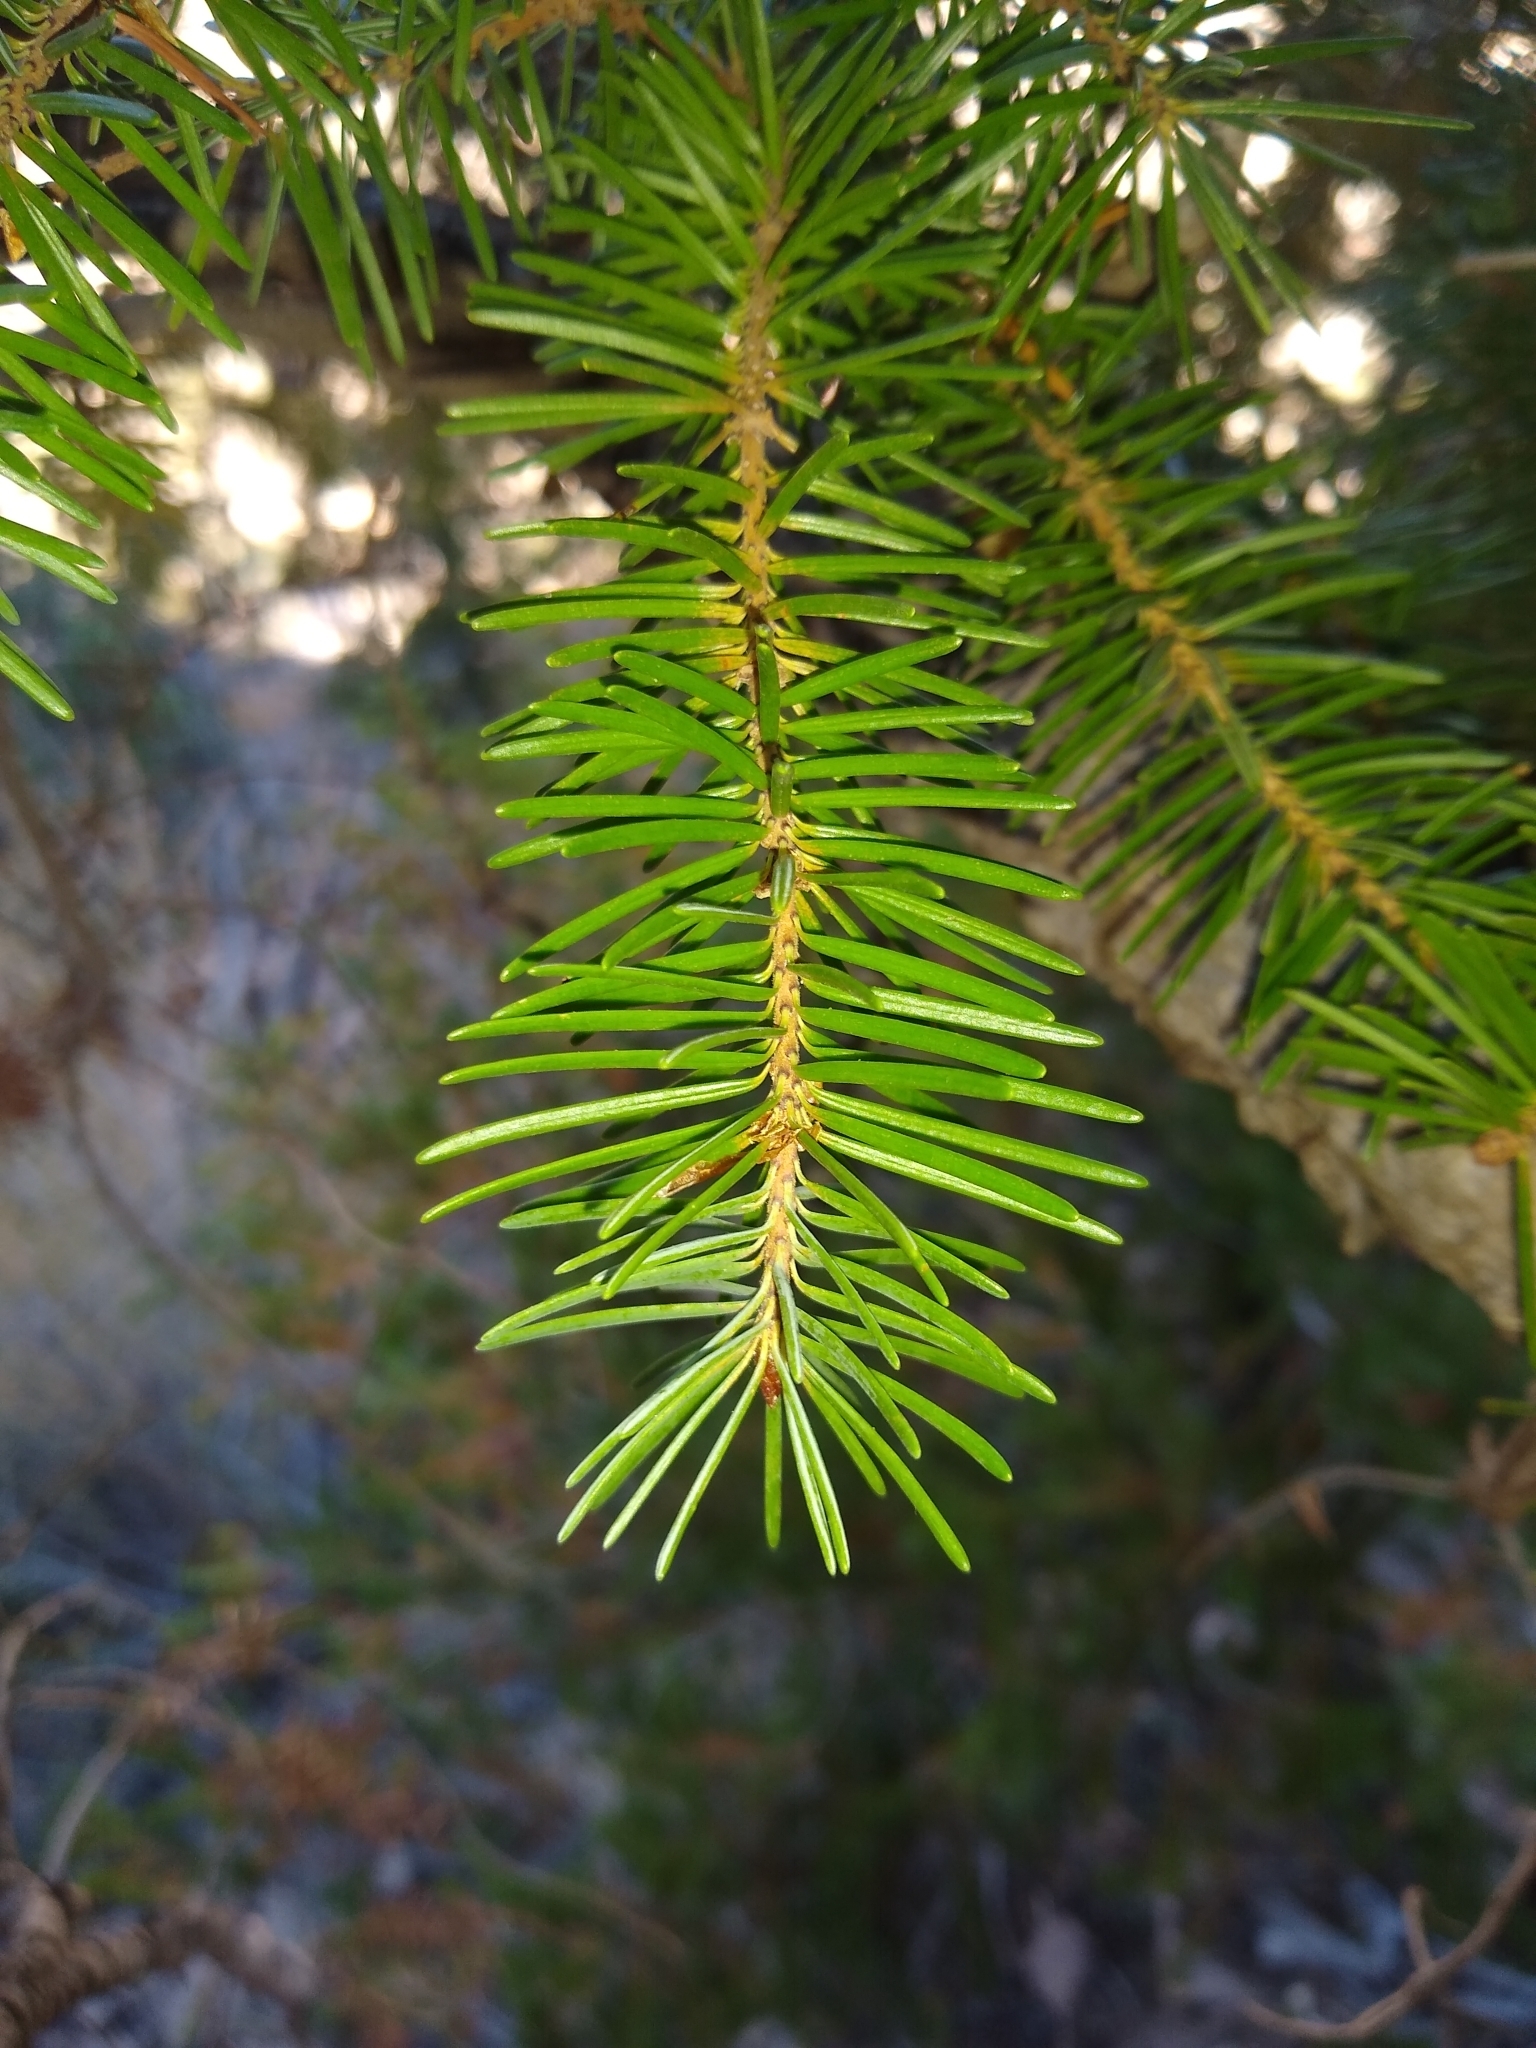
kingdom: Plantae
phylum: Tracheophyta
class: Pinopsida
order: Pinales
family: Pinaceae
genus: Pseudotsuga
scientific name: Pseudotsuga menziesii
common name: Douglas fir
